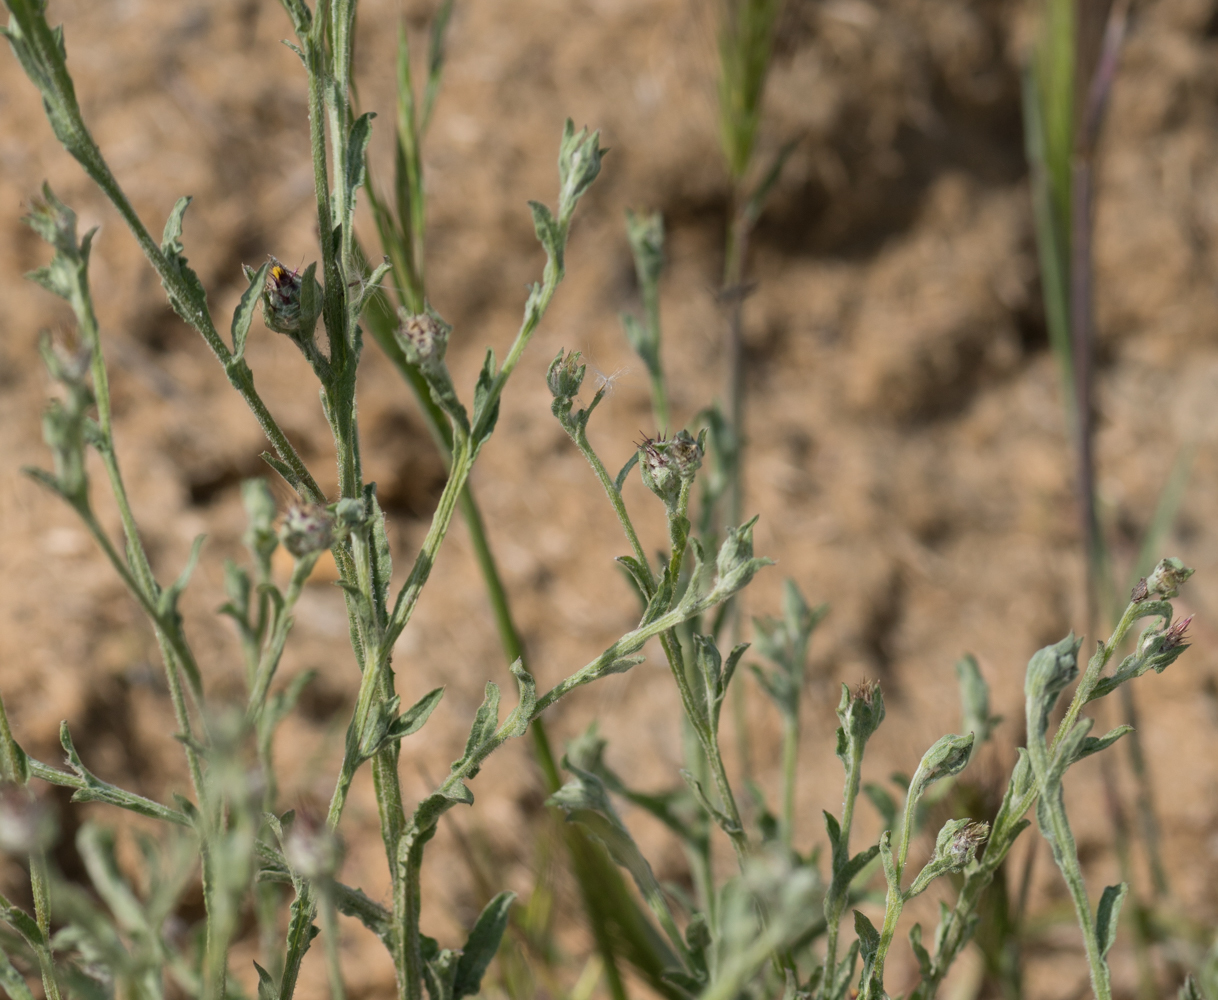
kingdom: Plantae
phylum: Tracheophyta
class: Magnoliopsida
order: Asterales
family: Asteraceae
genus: Centaurea
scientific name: Centaurea melitensis
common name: Maltese star-thistle
